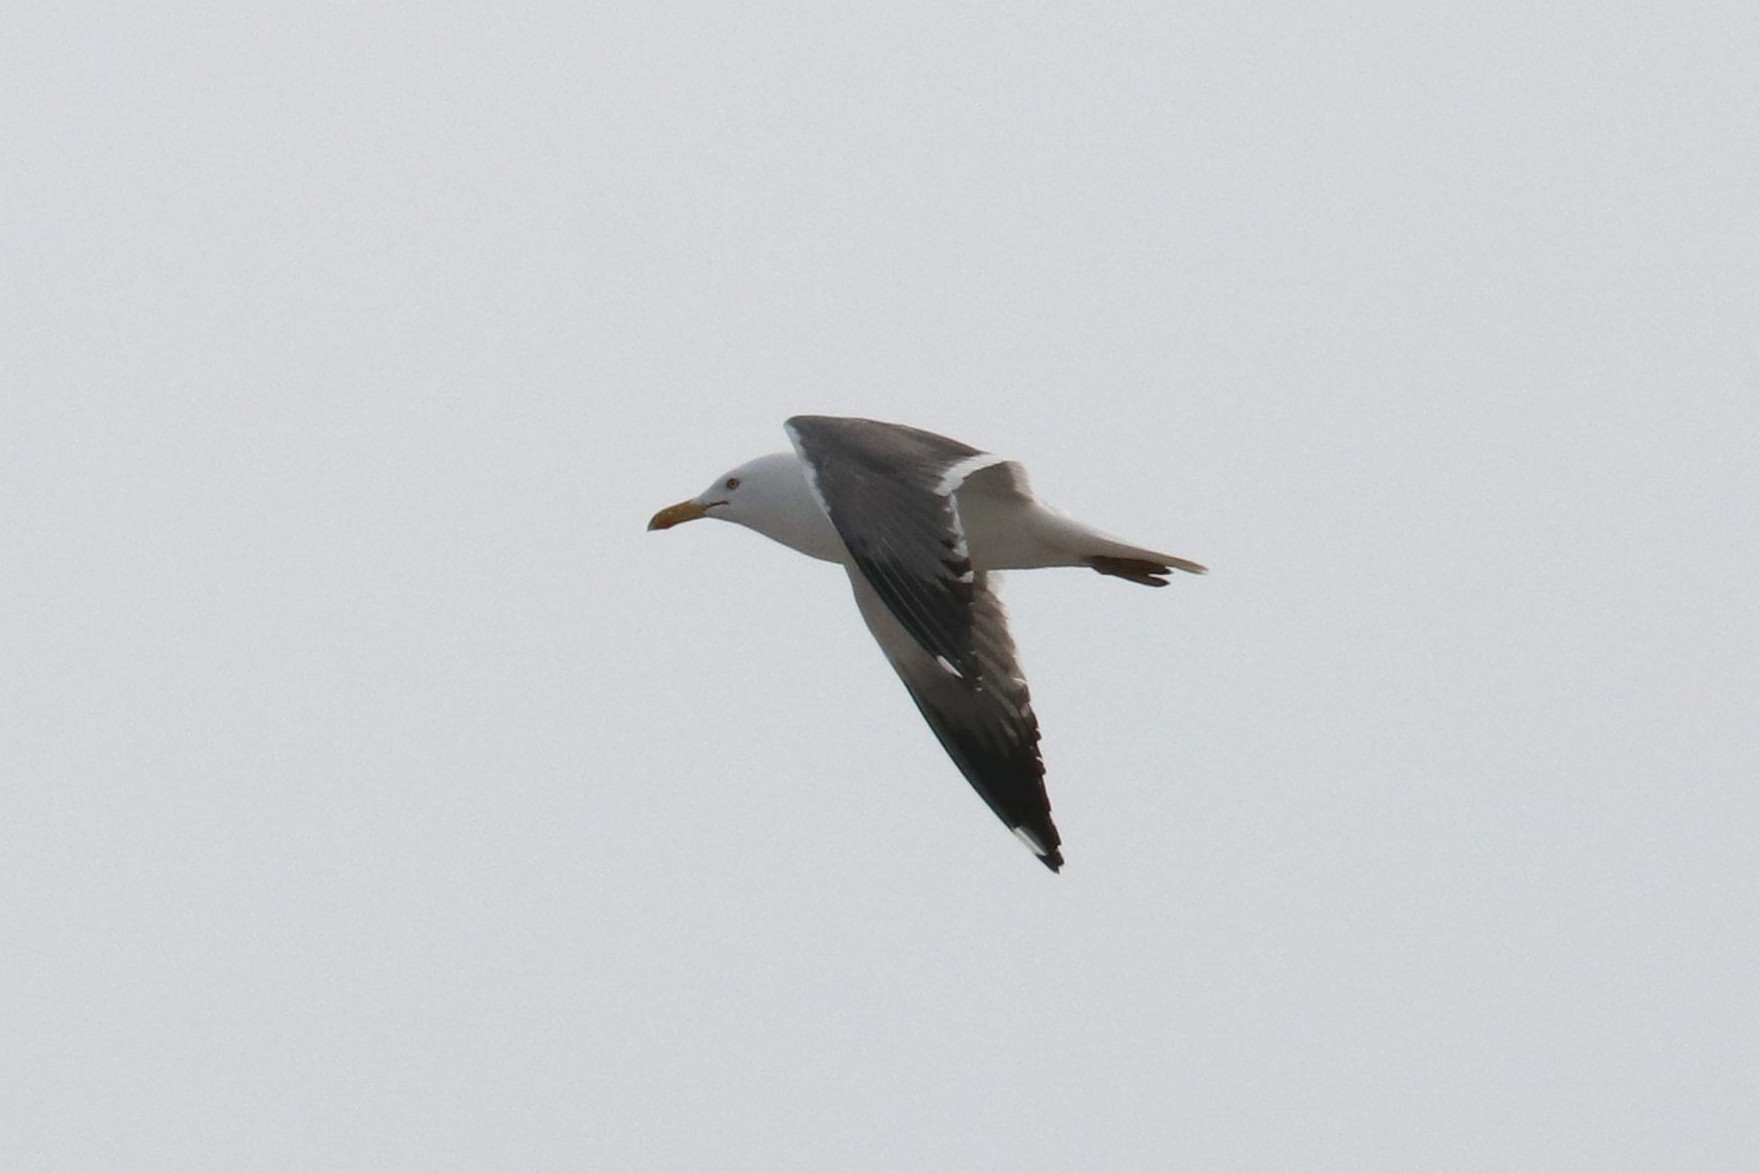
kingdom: Animalia
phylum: Chordata
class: Aves
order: Charadriiformes
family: Laridae
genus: Larus
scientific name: Larus fuscus
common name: Lesser black-backed gull
